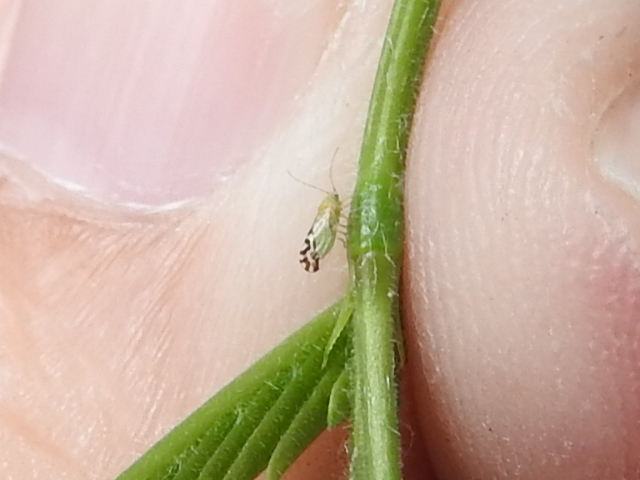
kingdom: Animalia
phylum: Arthropoda
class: Insecta
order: Hemiptera
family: Psyllidae
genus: Heteropsylla
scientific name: Heteropsylla texana
